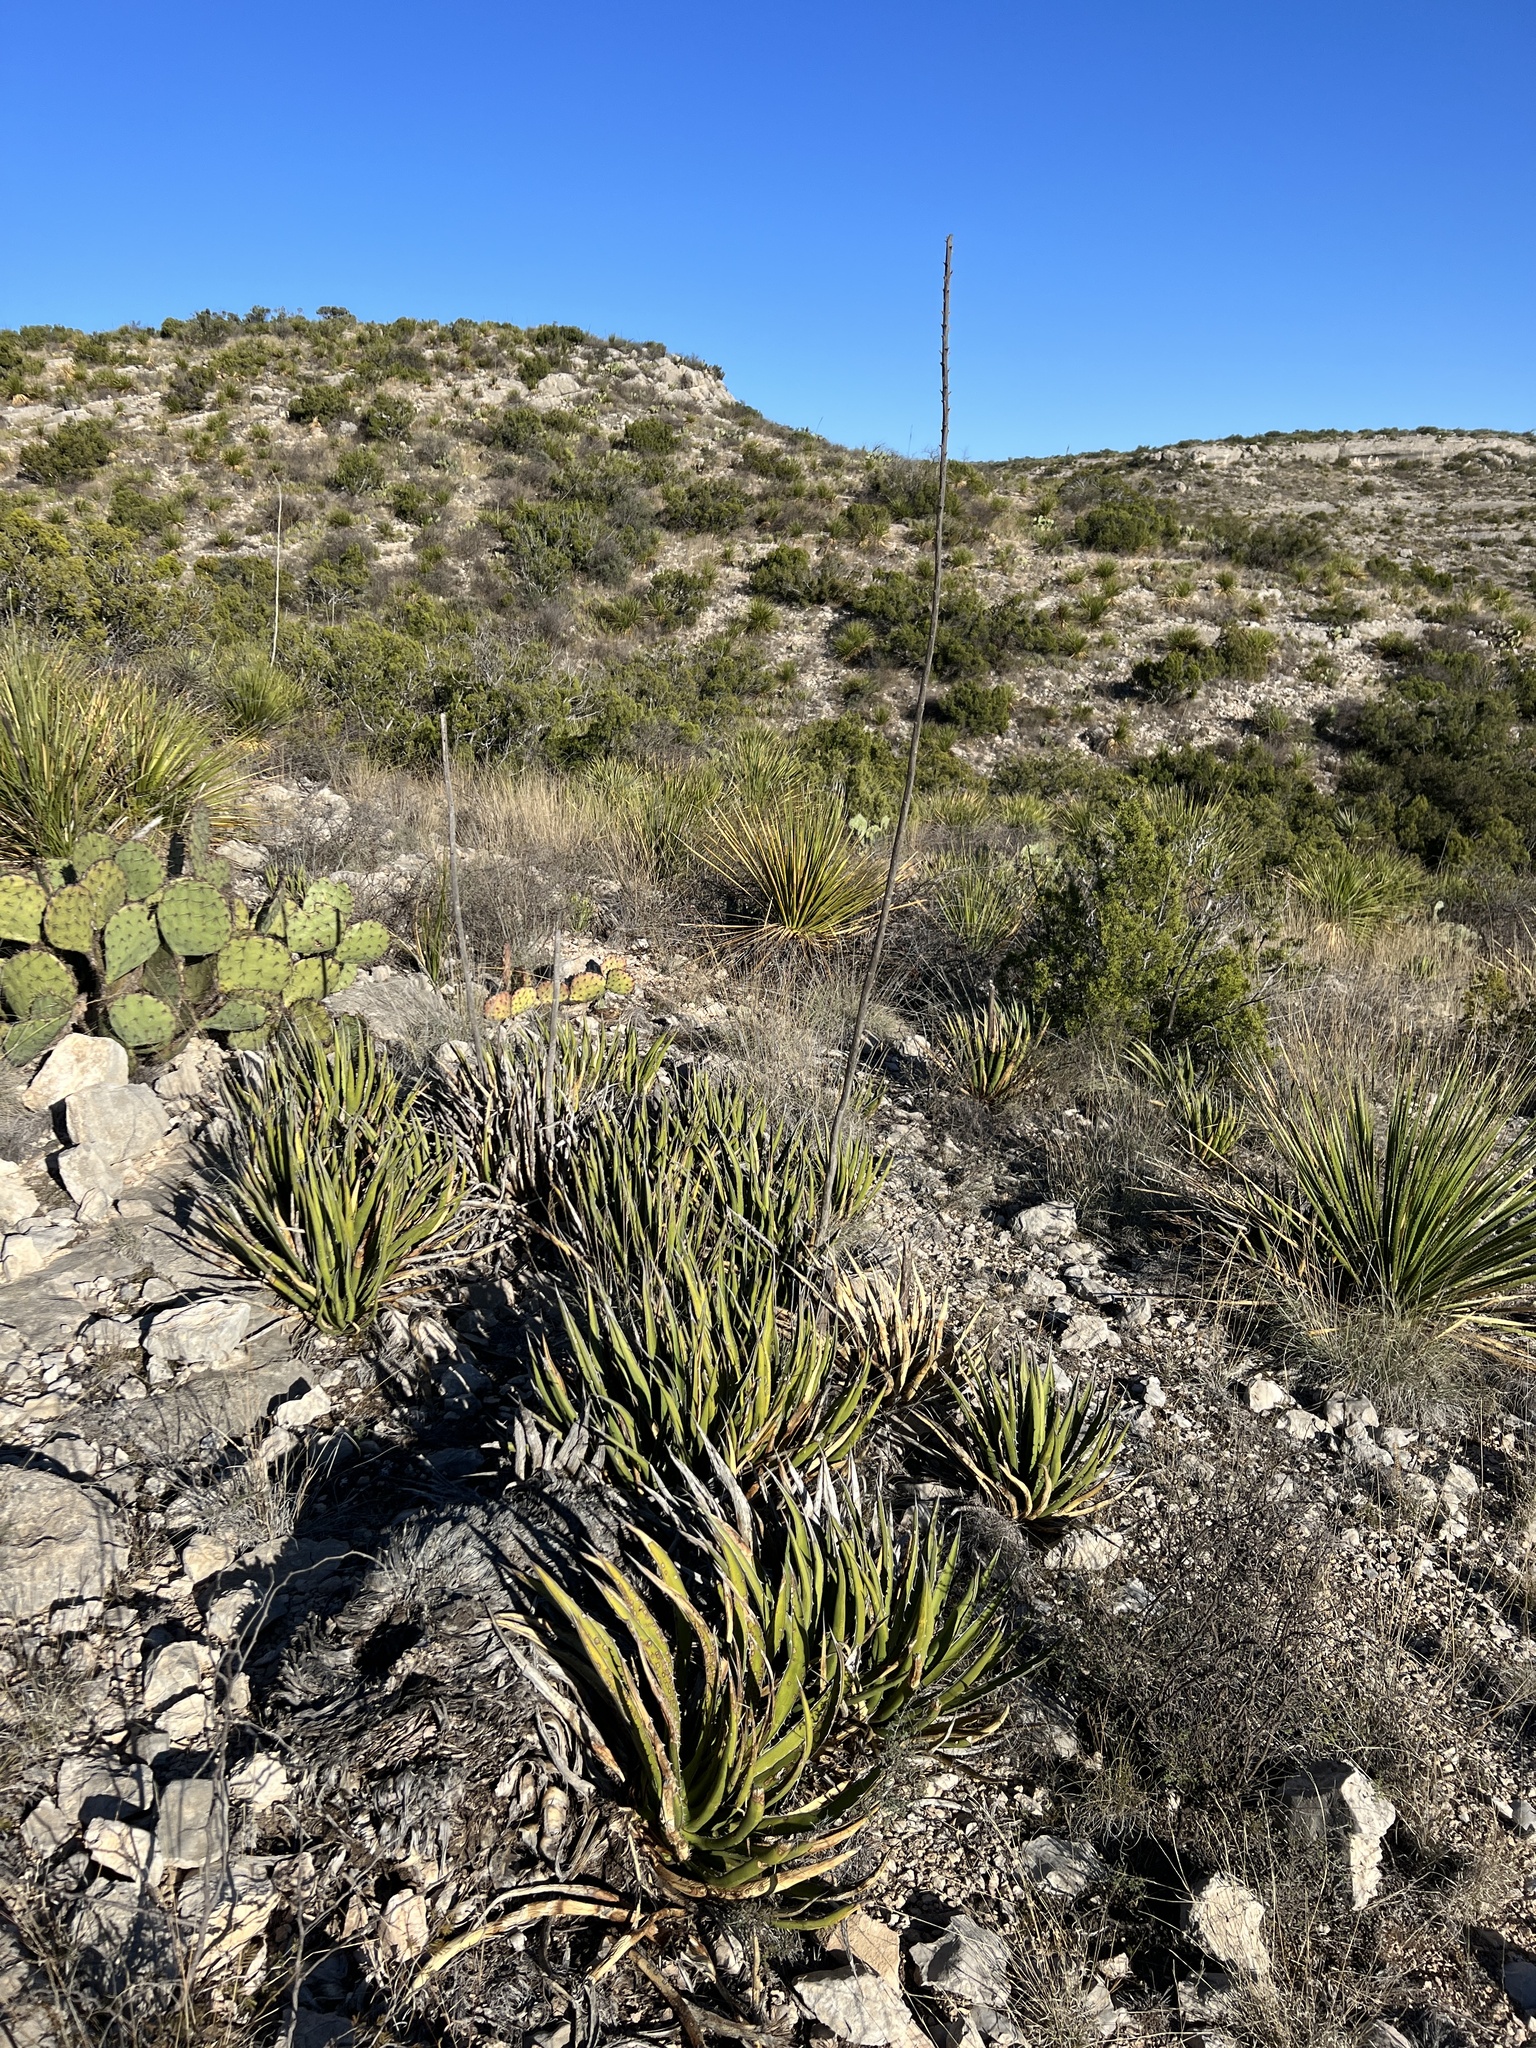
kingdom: Plantae
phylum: Tracheophyta
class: Liliopsida
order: Asparagales
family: Asparagaceae
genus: Agave
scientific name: Agave lechuguilla
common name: Lecheguilla agave
